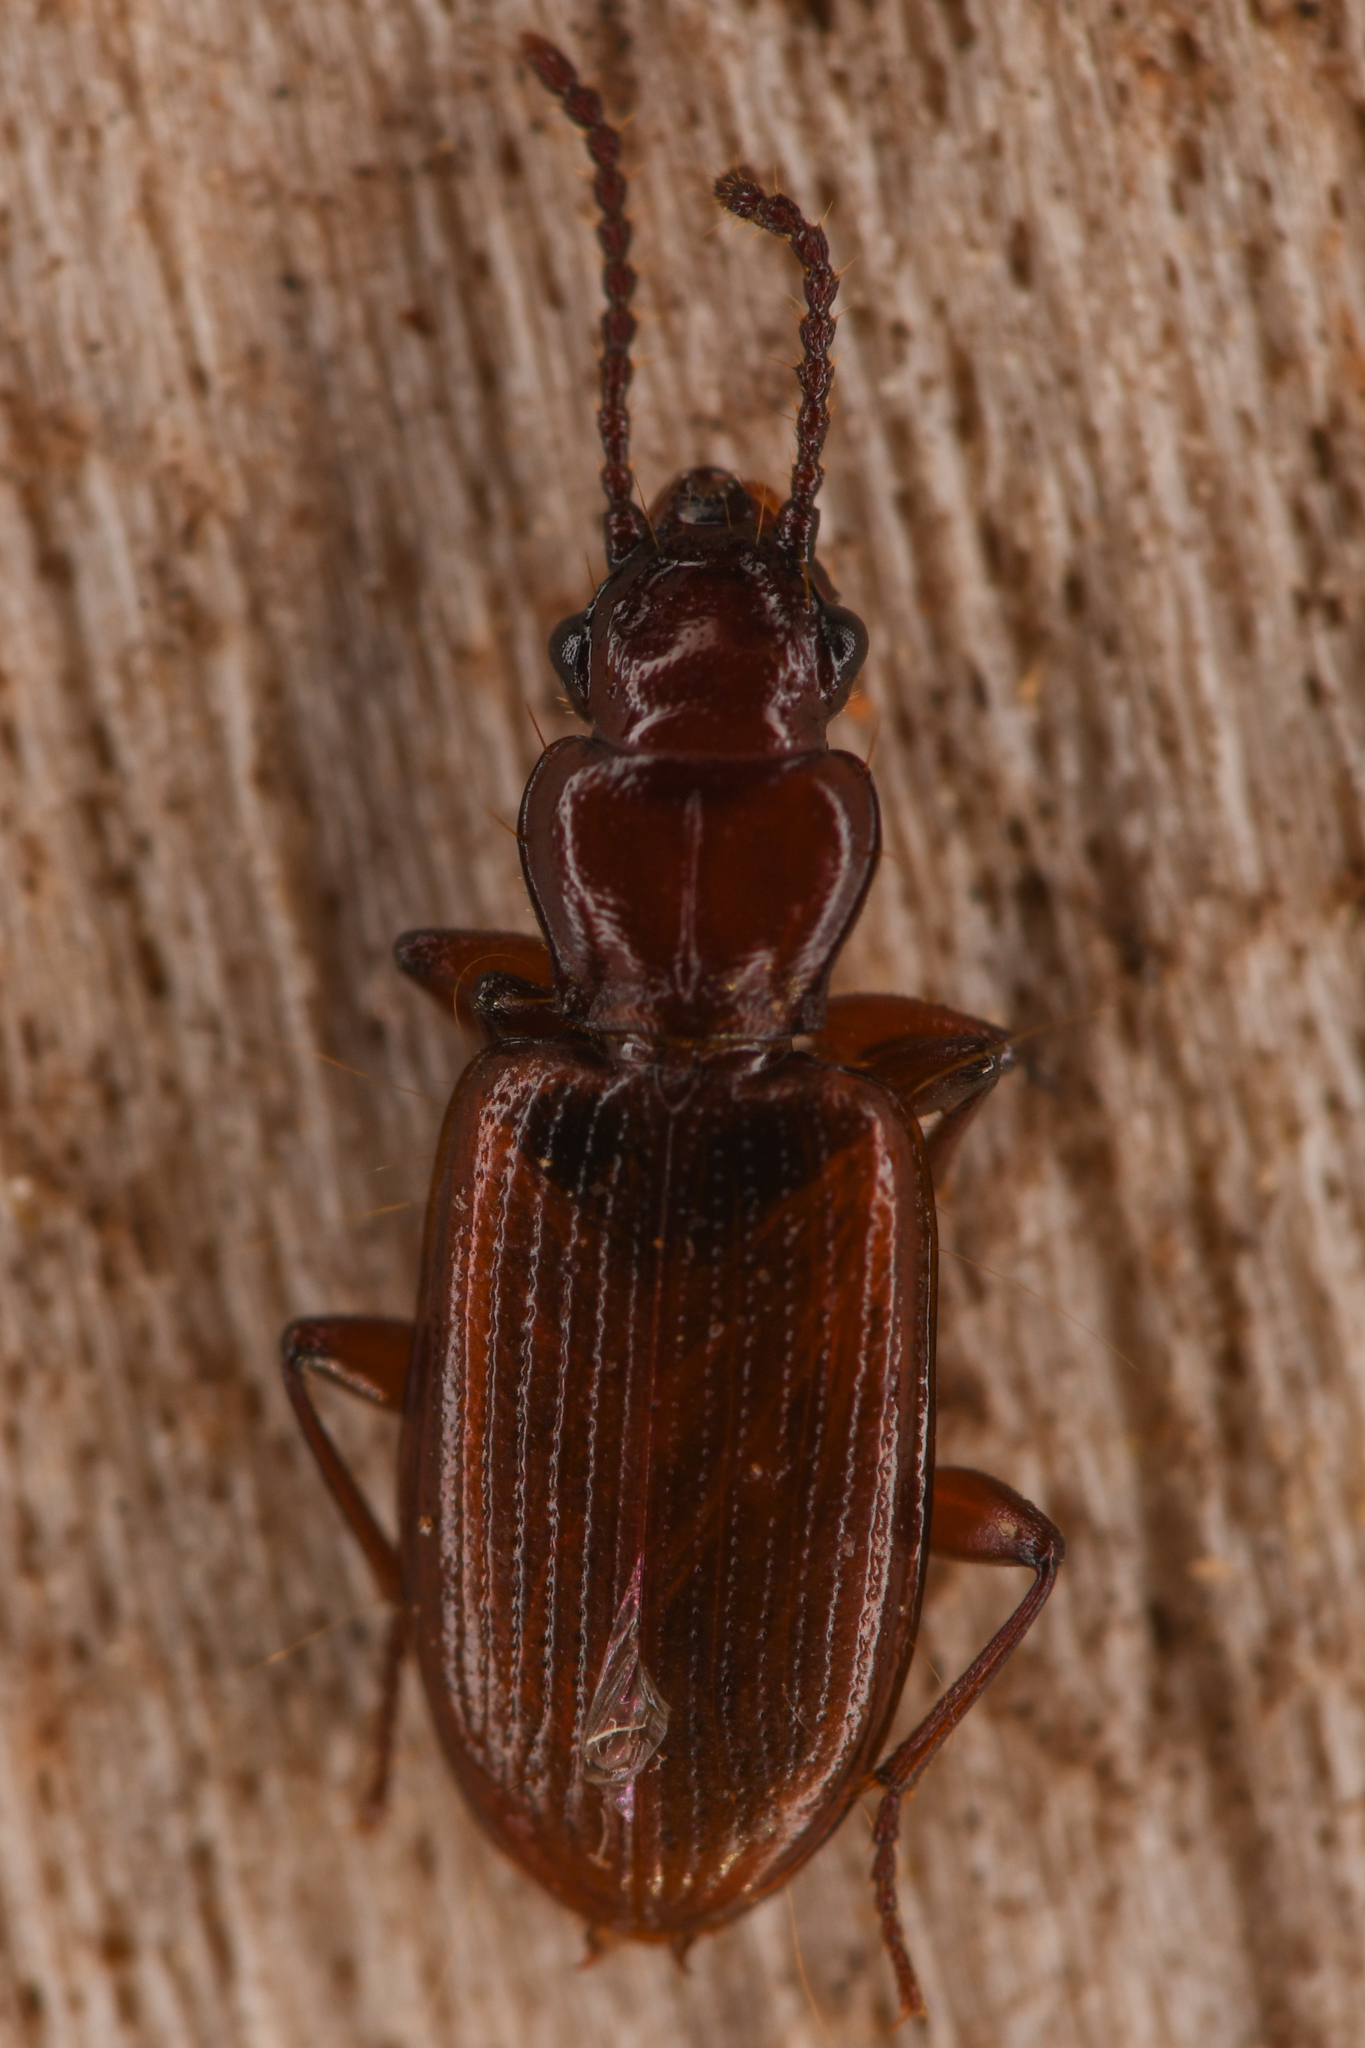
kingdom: Animalia
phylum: Arthropoda
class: Insecta
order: Coleoptera
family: Carabidae
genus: Psydrus
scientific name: Psydrus piceus
